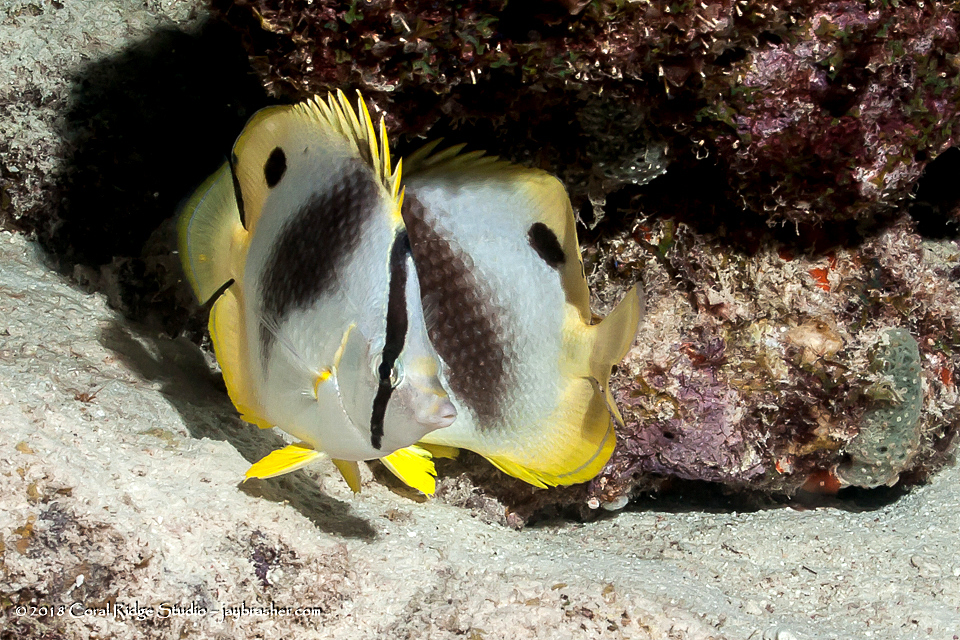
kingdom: Animalia
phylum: Chordata
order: Perciformes
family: Chaetodontidae
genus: Chaetodon
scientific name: Chaetodon ocellatus
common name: Spotfin butterflyfish
